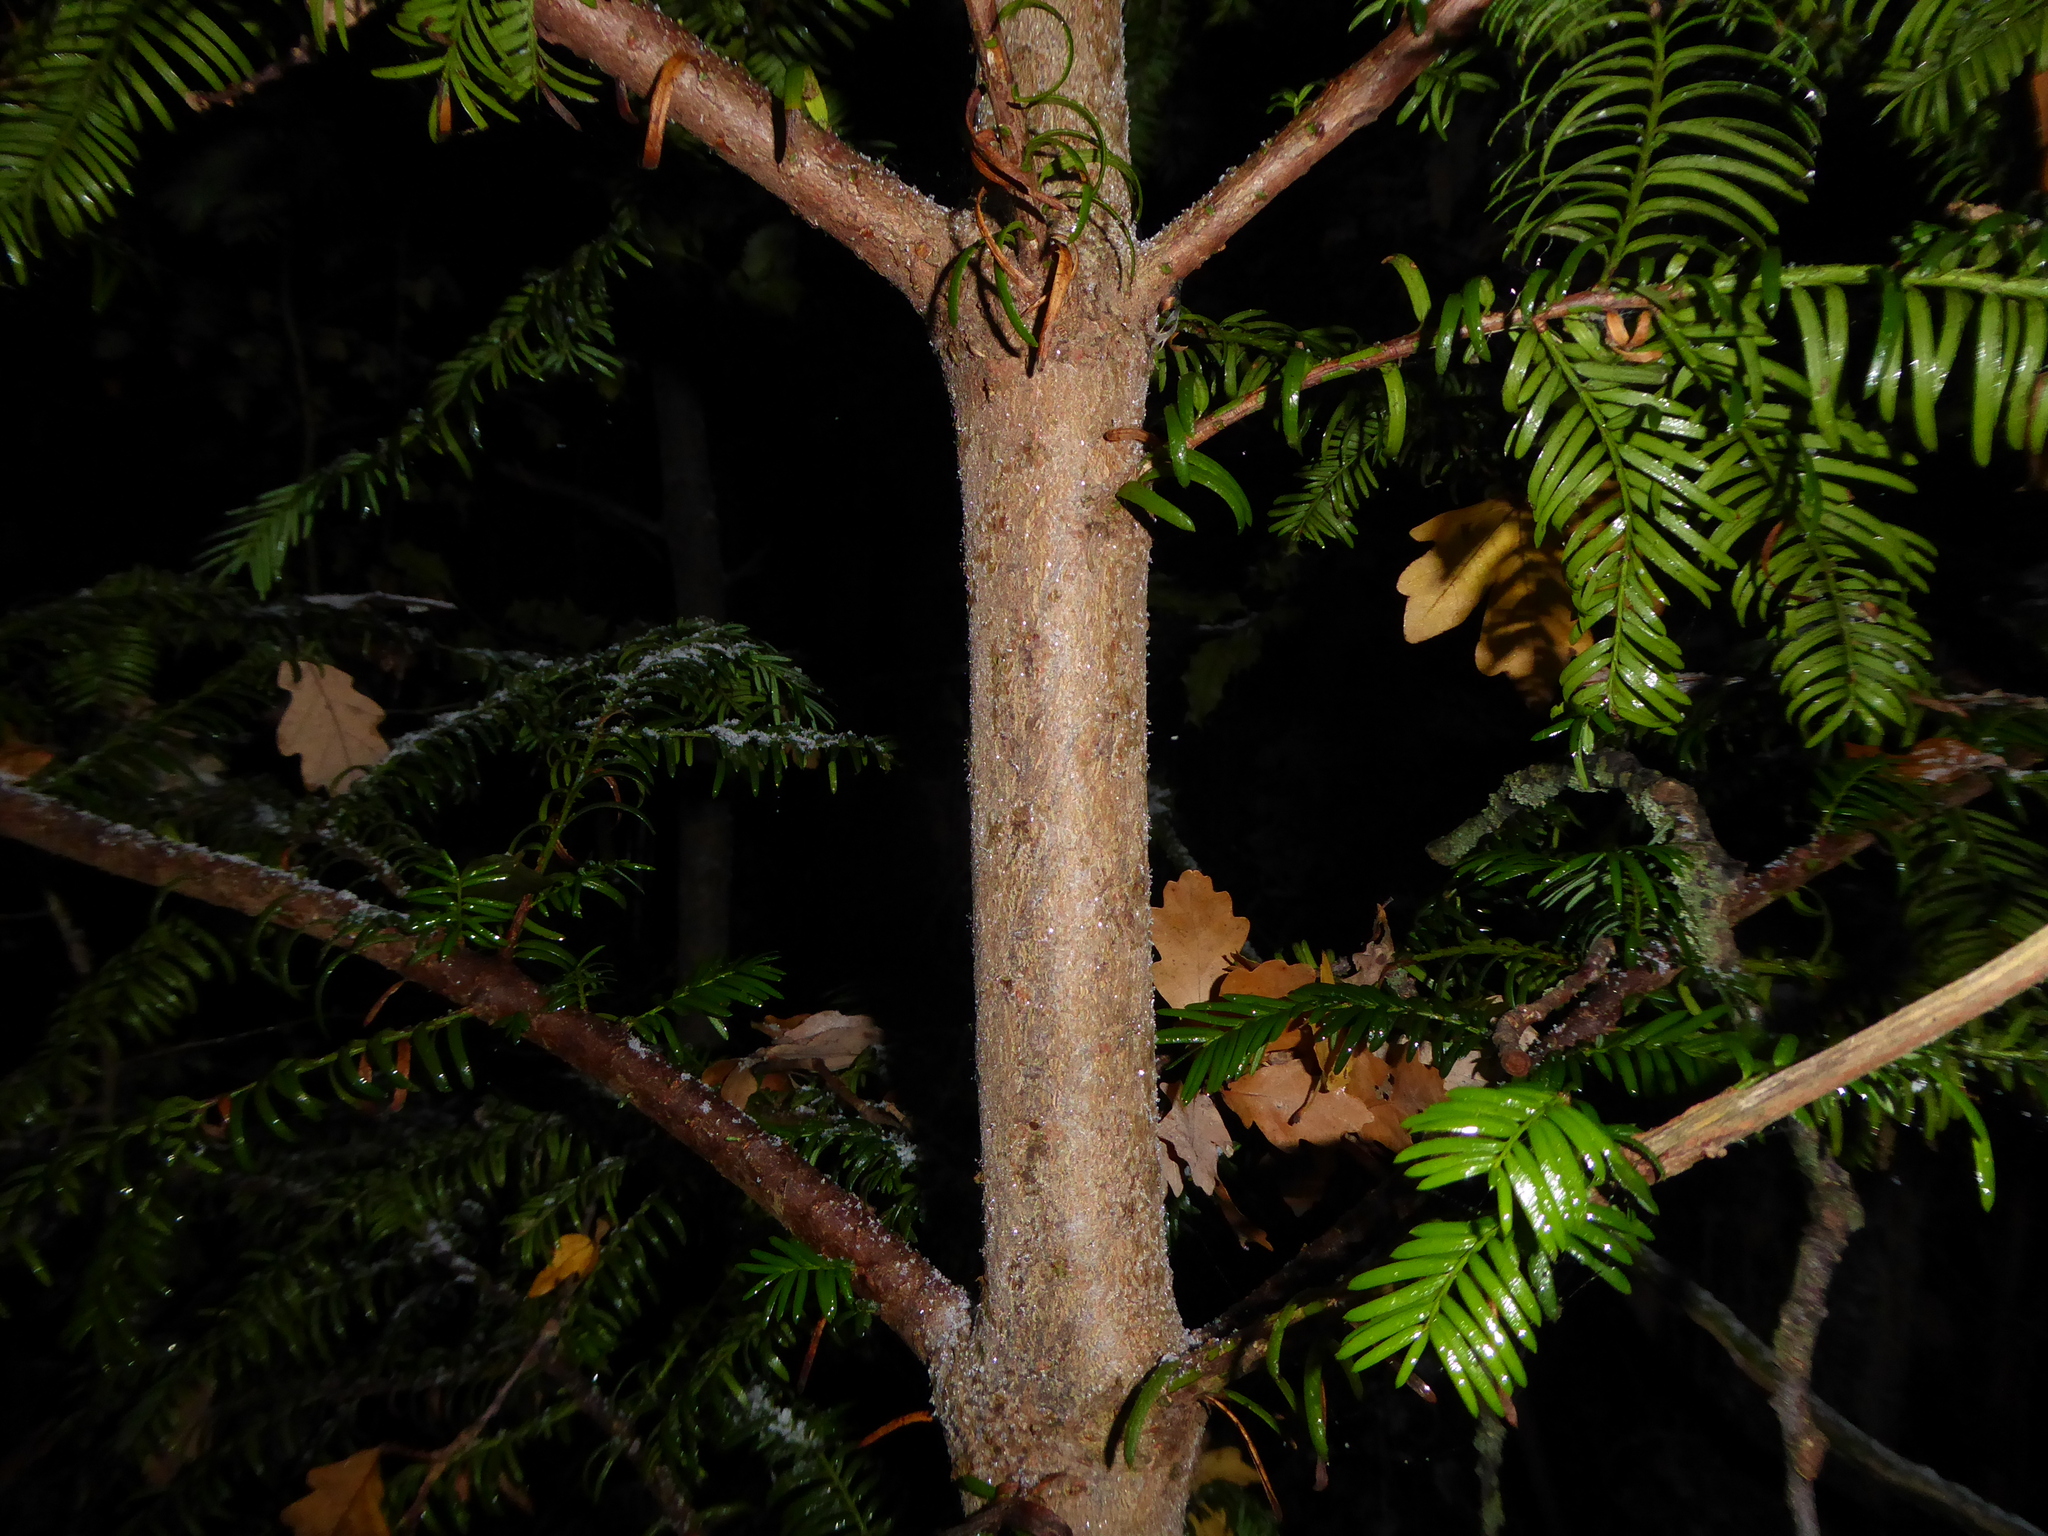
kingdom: Plantae
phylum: Tracheophyta
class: Pinopsida
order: Pinales
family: Taxaceae
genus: Taxus
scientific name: Taxus baccata
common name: Yew
